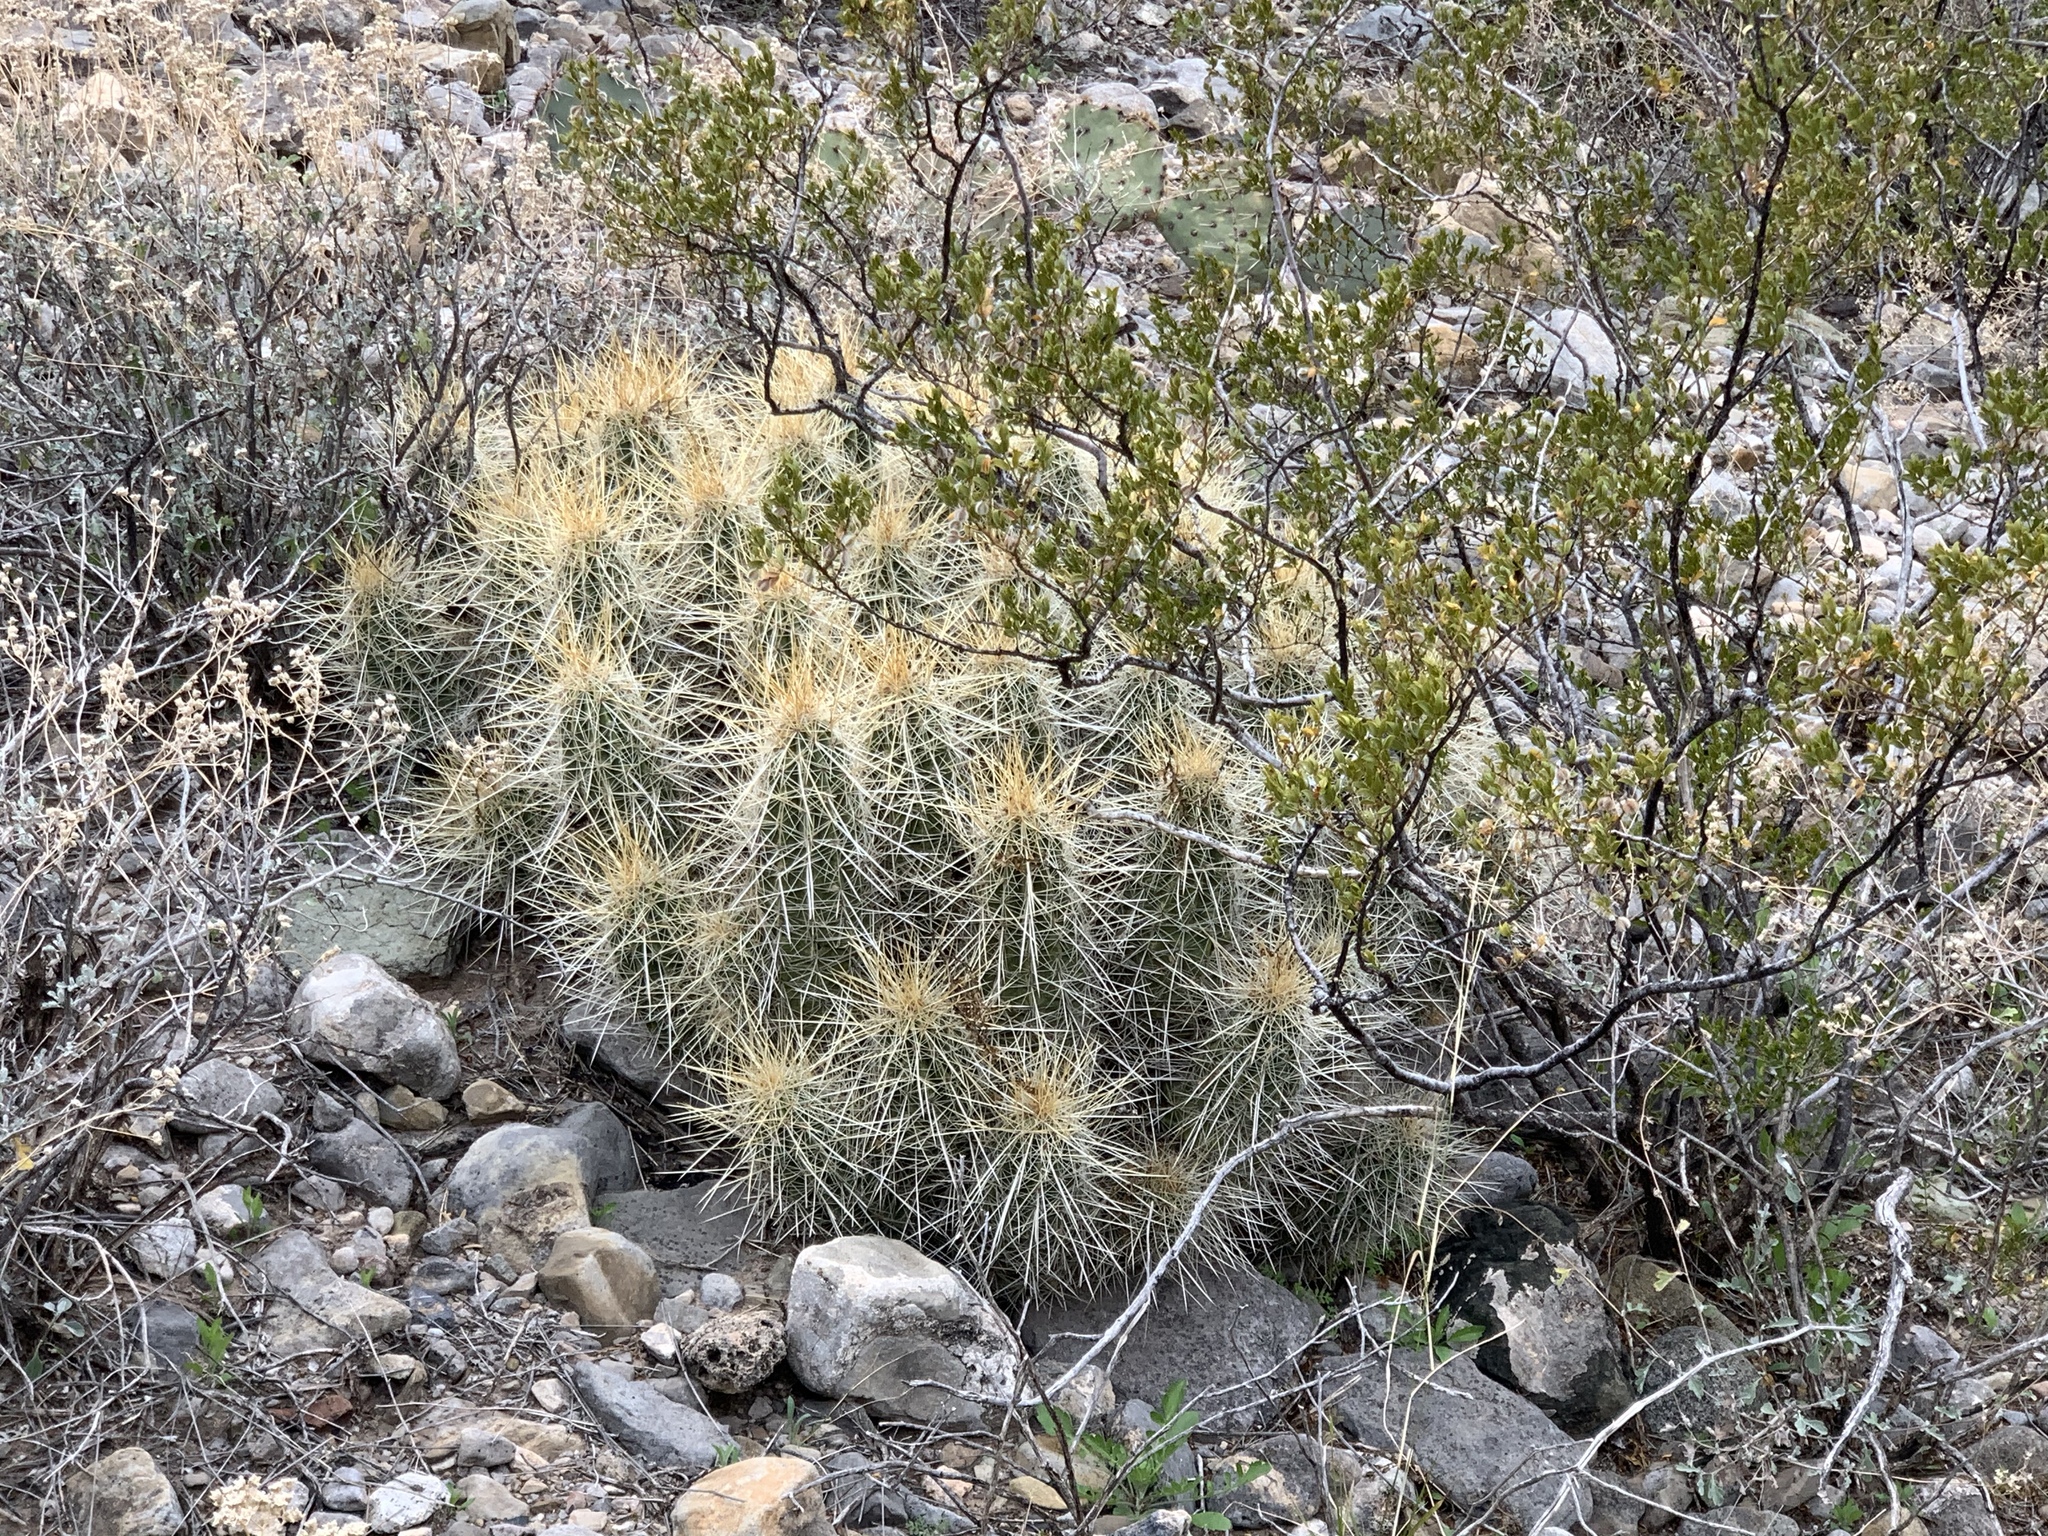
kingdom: Plantae
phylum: Tracheophyta
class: Magnoliopsida
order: Caryophyllales
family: Cactaceae
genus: Echinocereus
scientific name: Echinocereus stramineus
